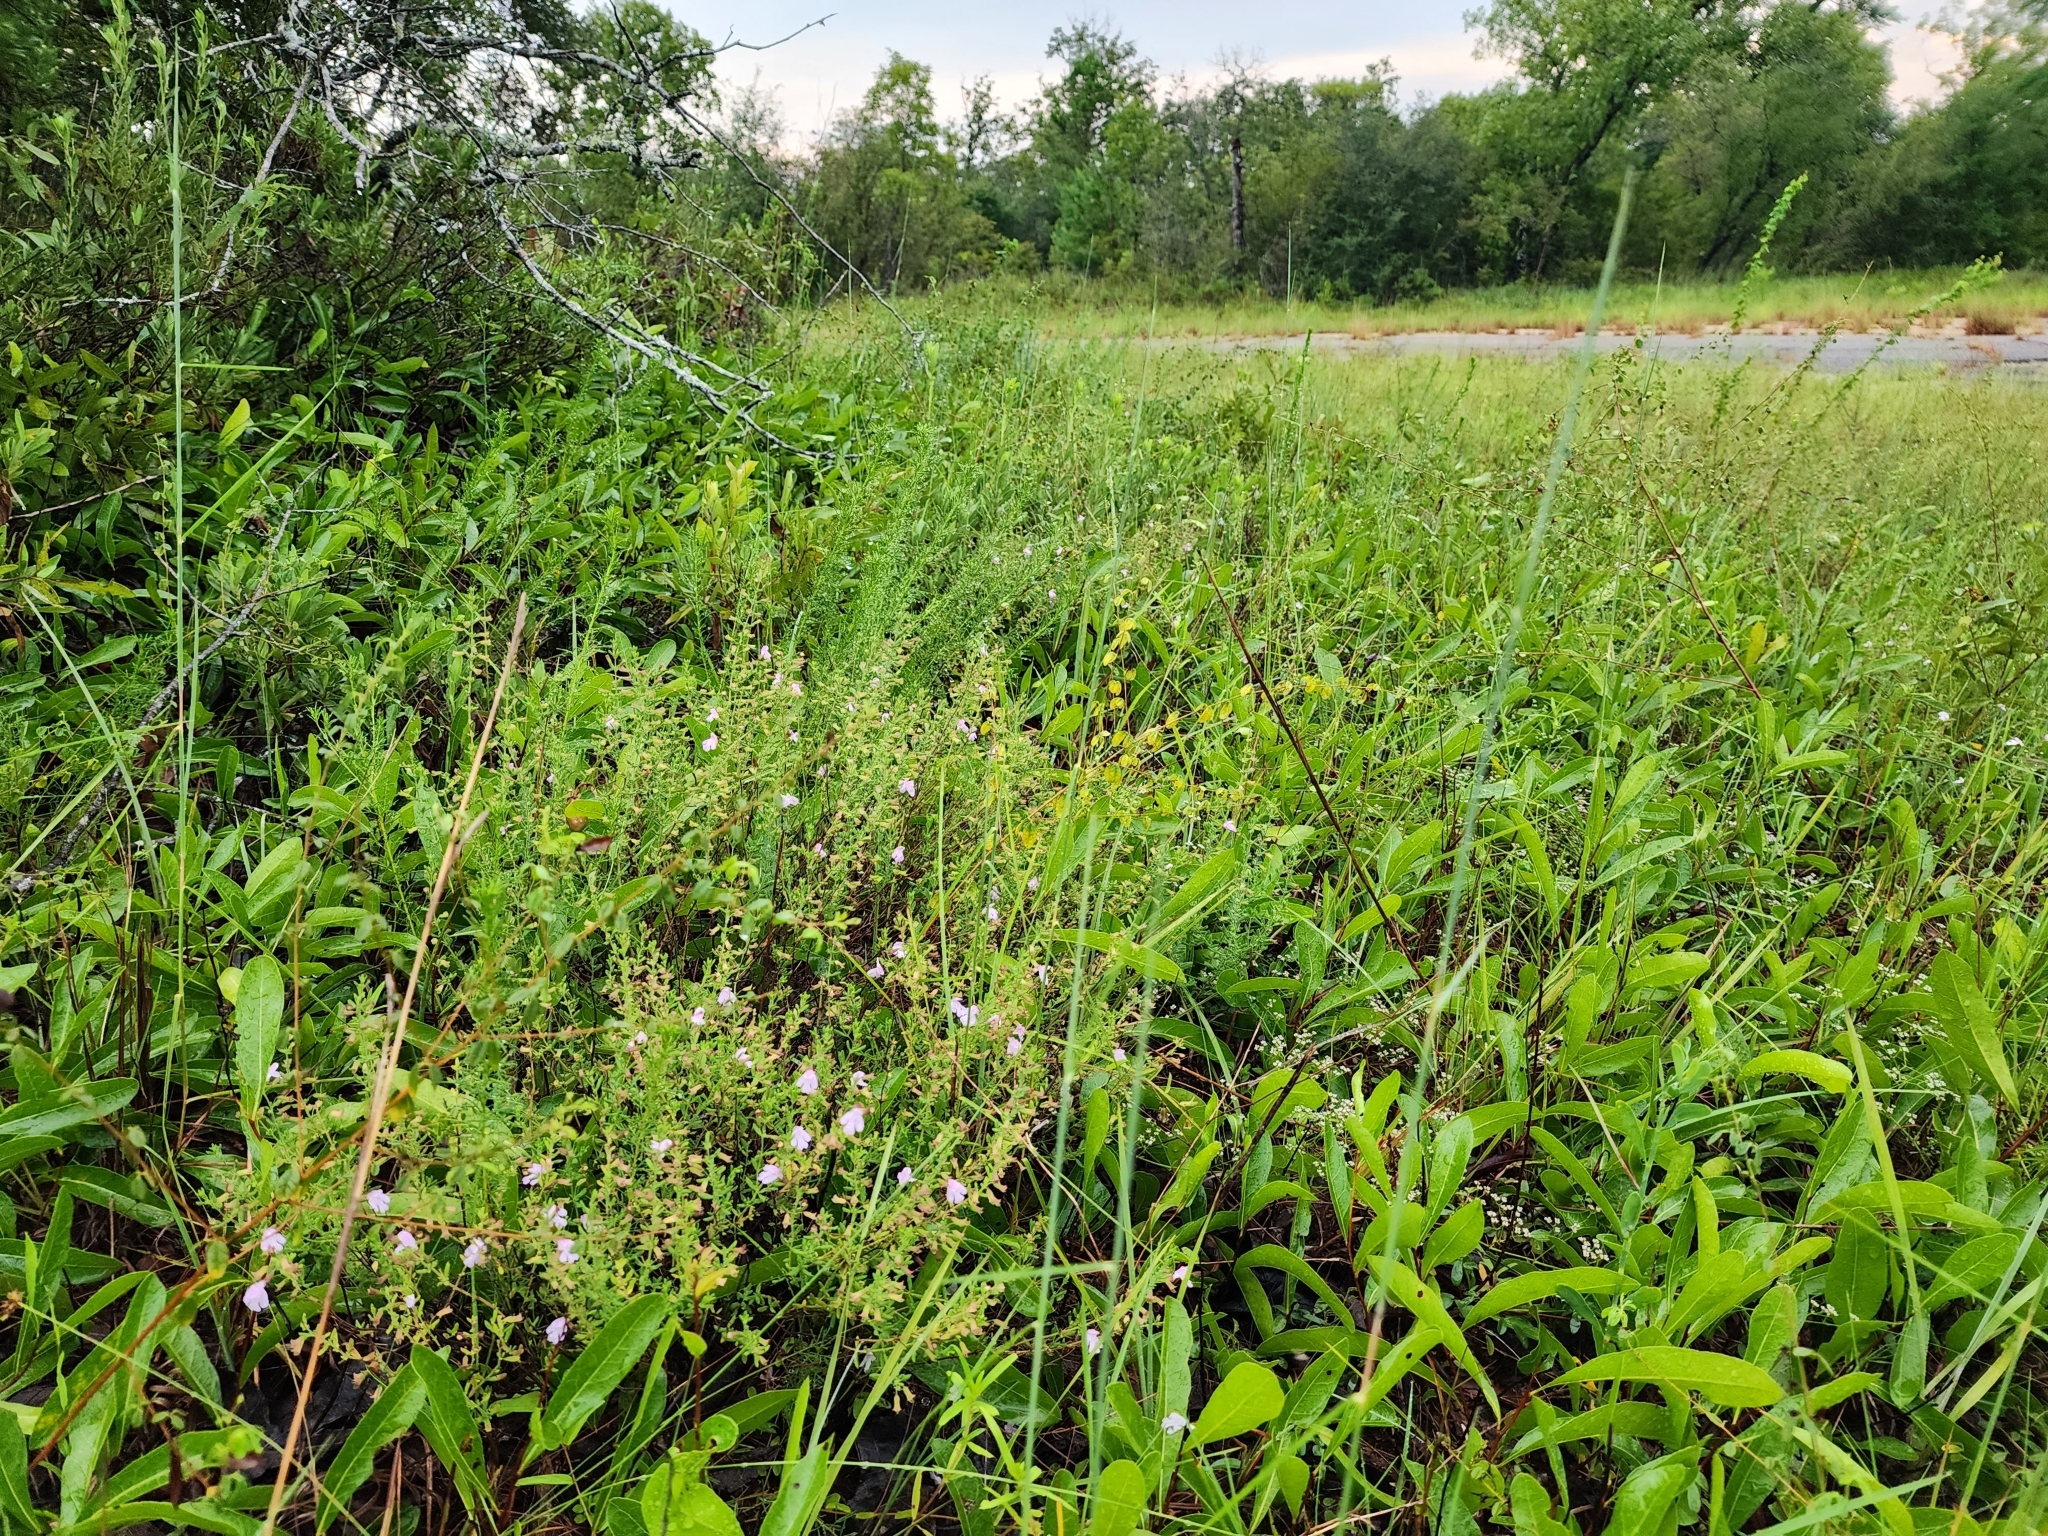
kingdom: Plantae
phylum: Tracheophyta
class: Magnoliopsida
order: Lamiales
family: Lamiaceae
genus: Clinopodium
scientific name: Clinopodium dentatum
